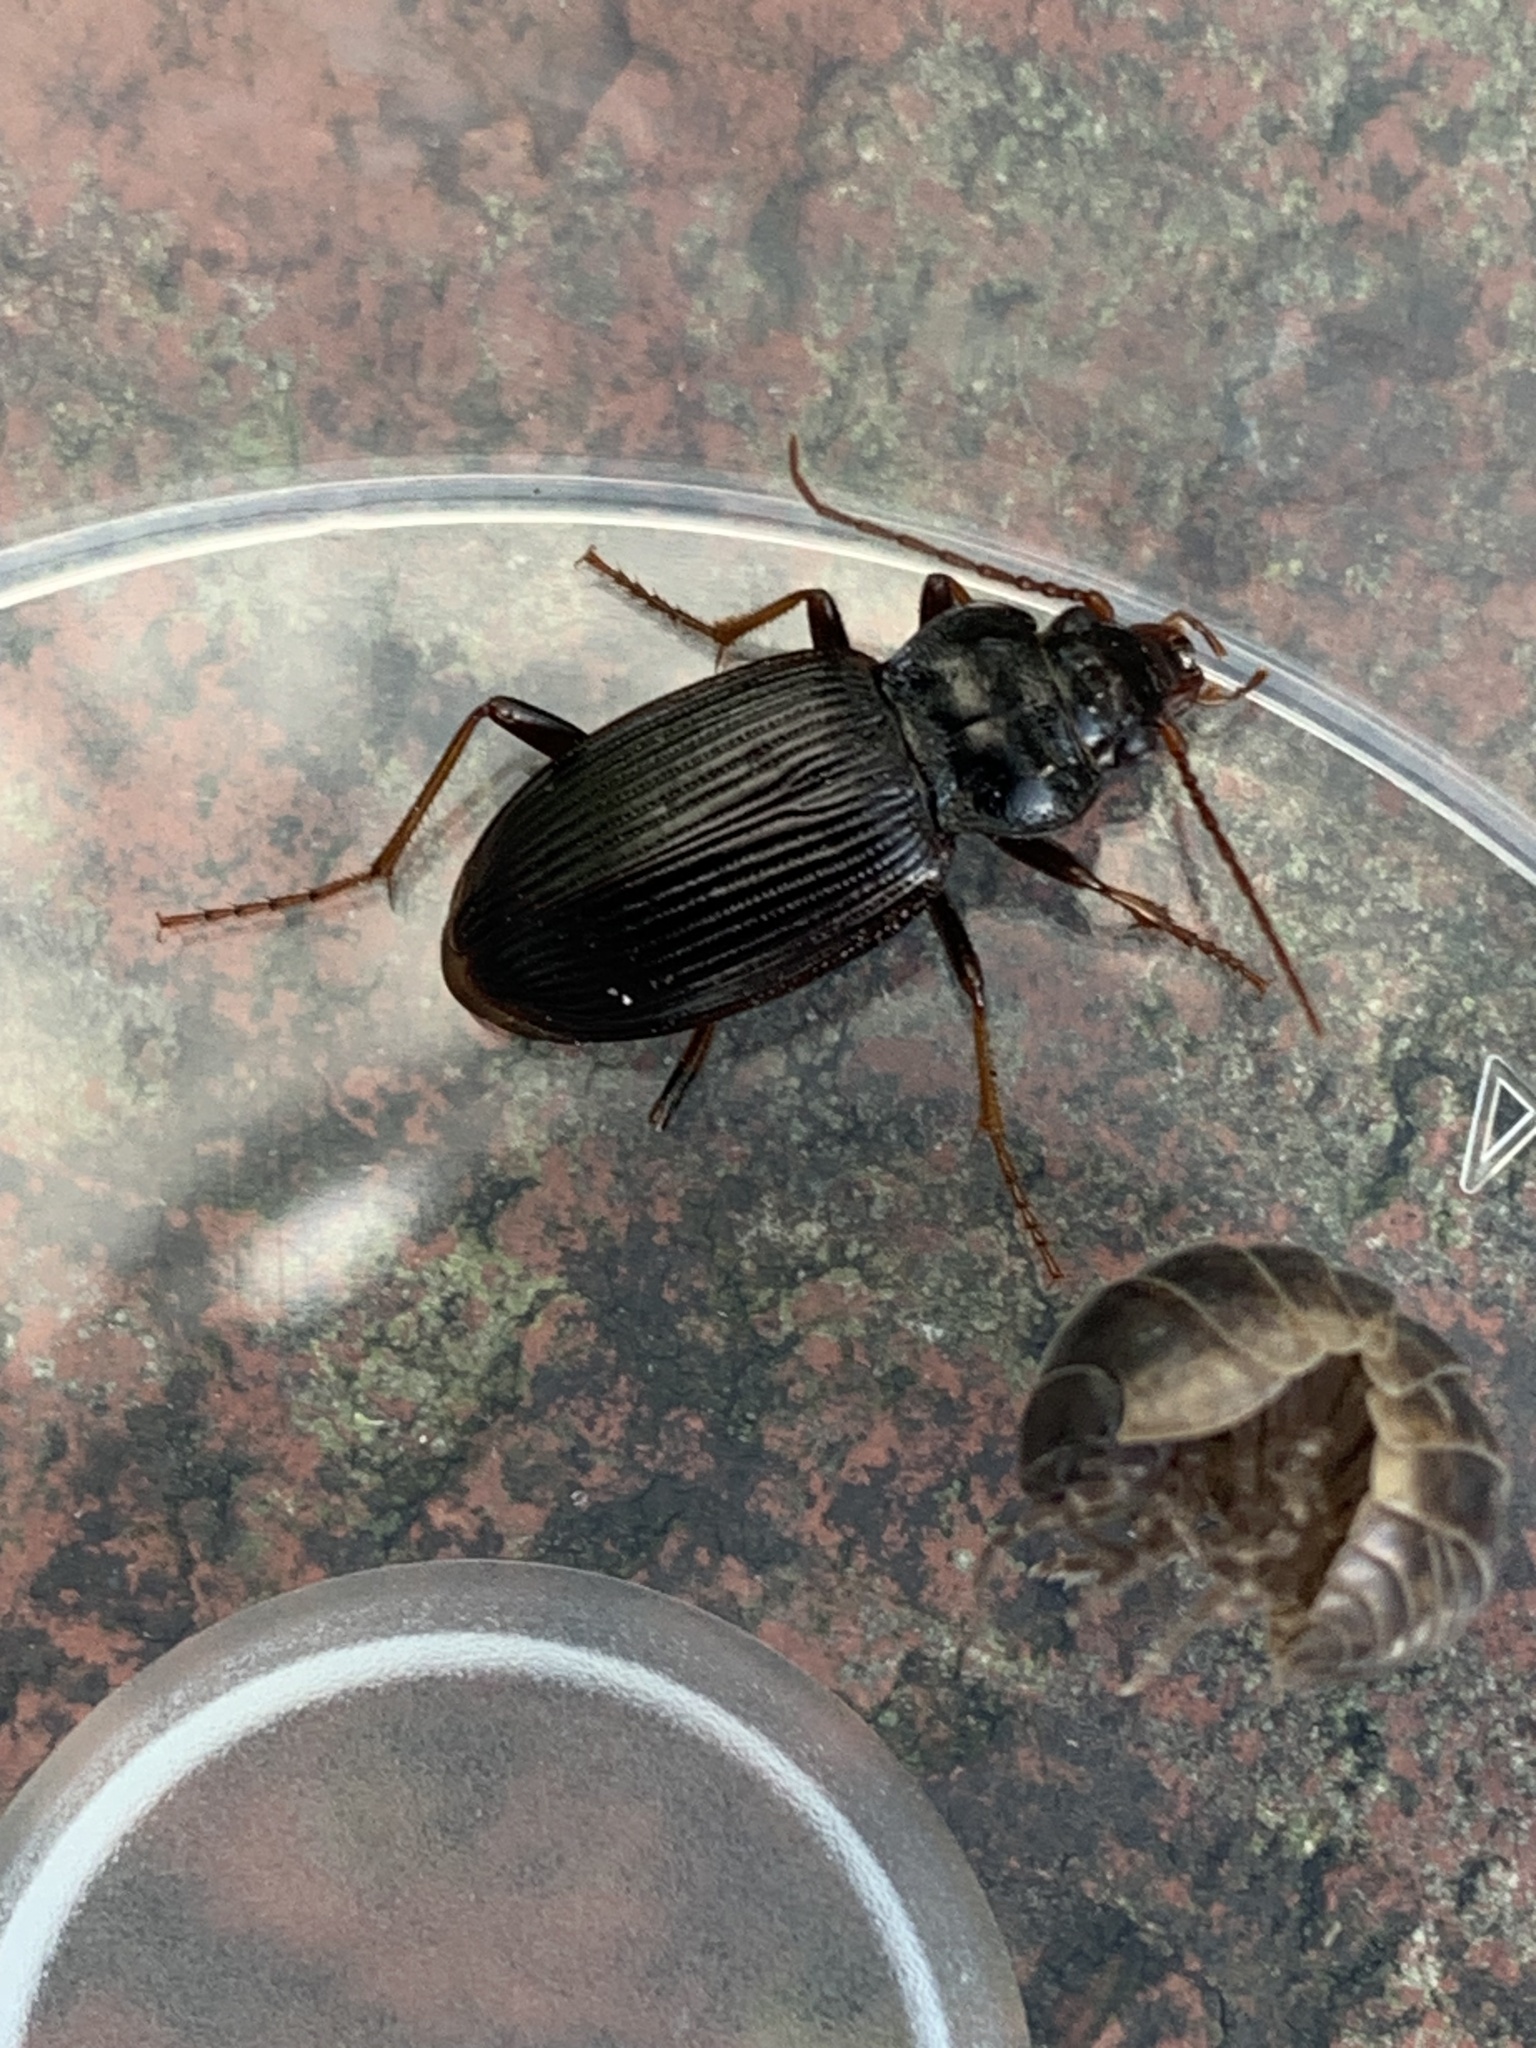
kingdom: Animalia
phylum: Arthropoda
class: Insecta
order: Coleoptera
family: Carabidae
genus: Nebria
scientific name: Nebria brevicollis
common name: Short-necked gazelle beetle
